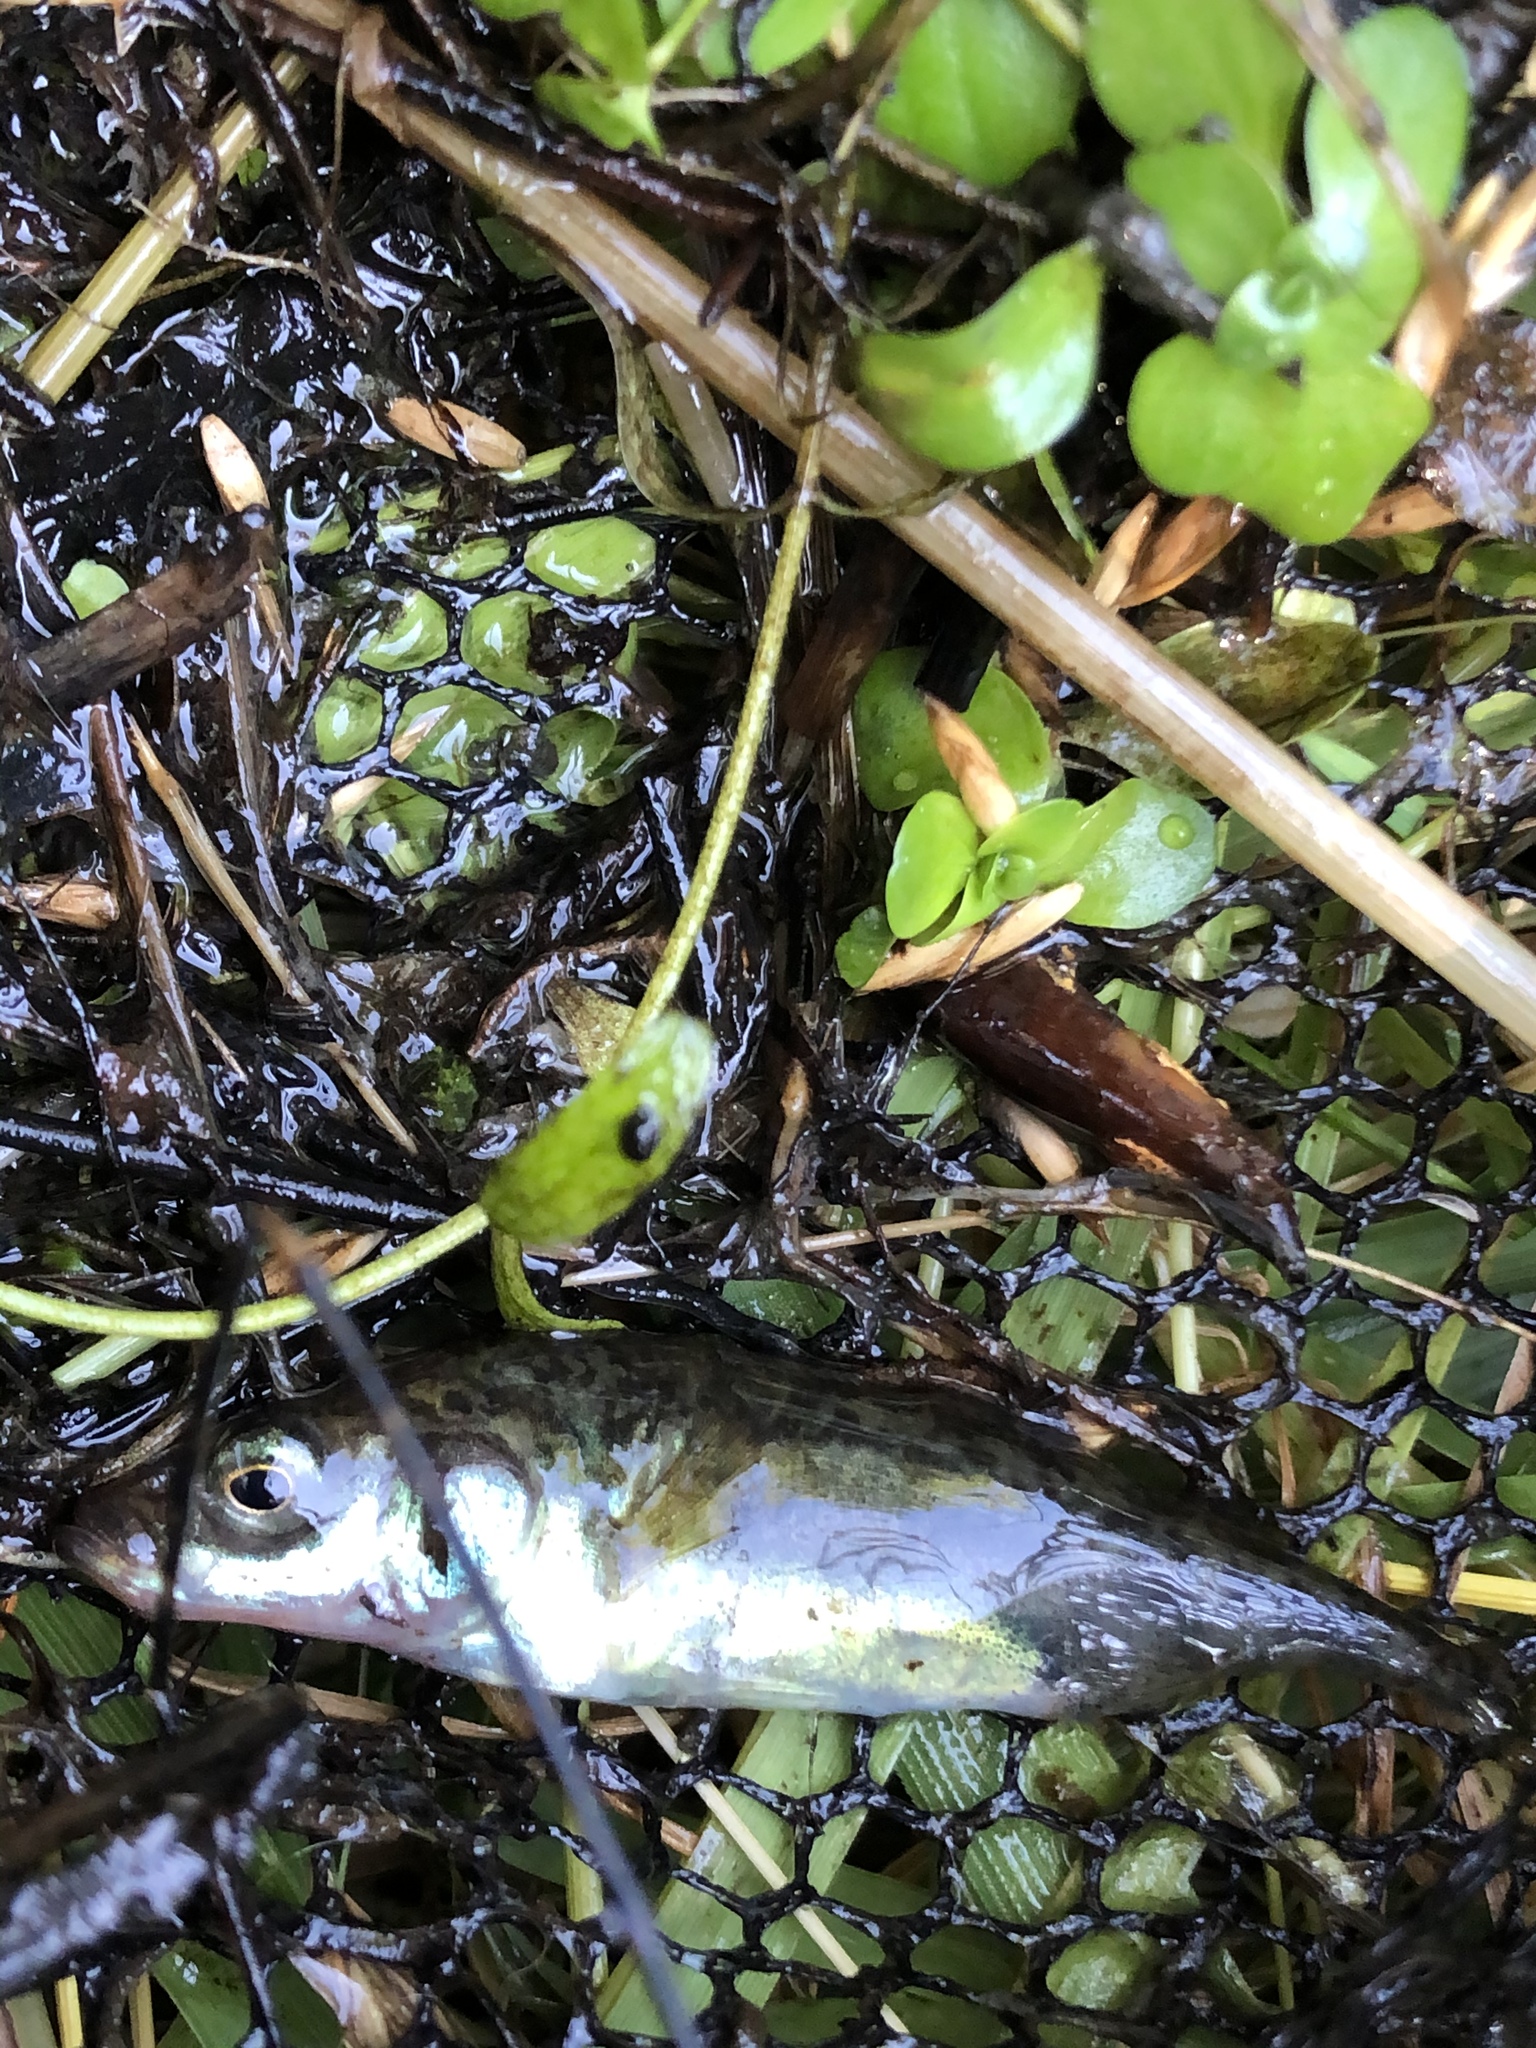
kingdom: Animalia
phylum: Chordata
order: Gasterosteiformes
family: Gasterosteidae
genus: Gasterosteus
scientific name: Gasterosteus aculeatus
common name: Three-spined stickleback
